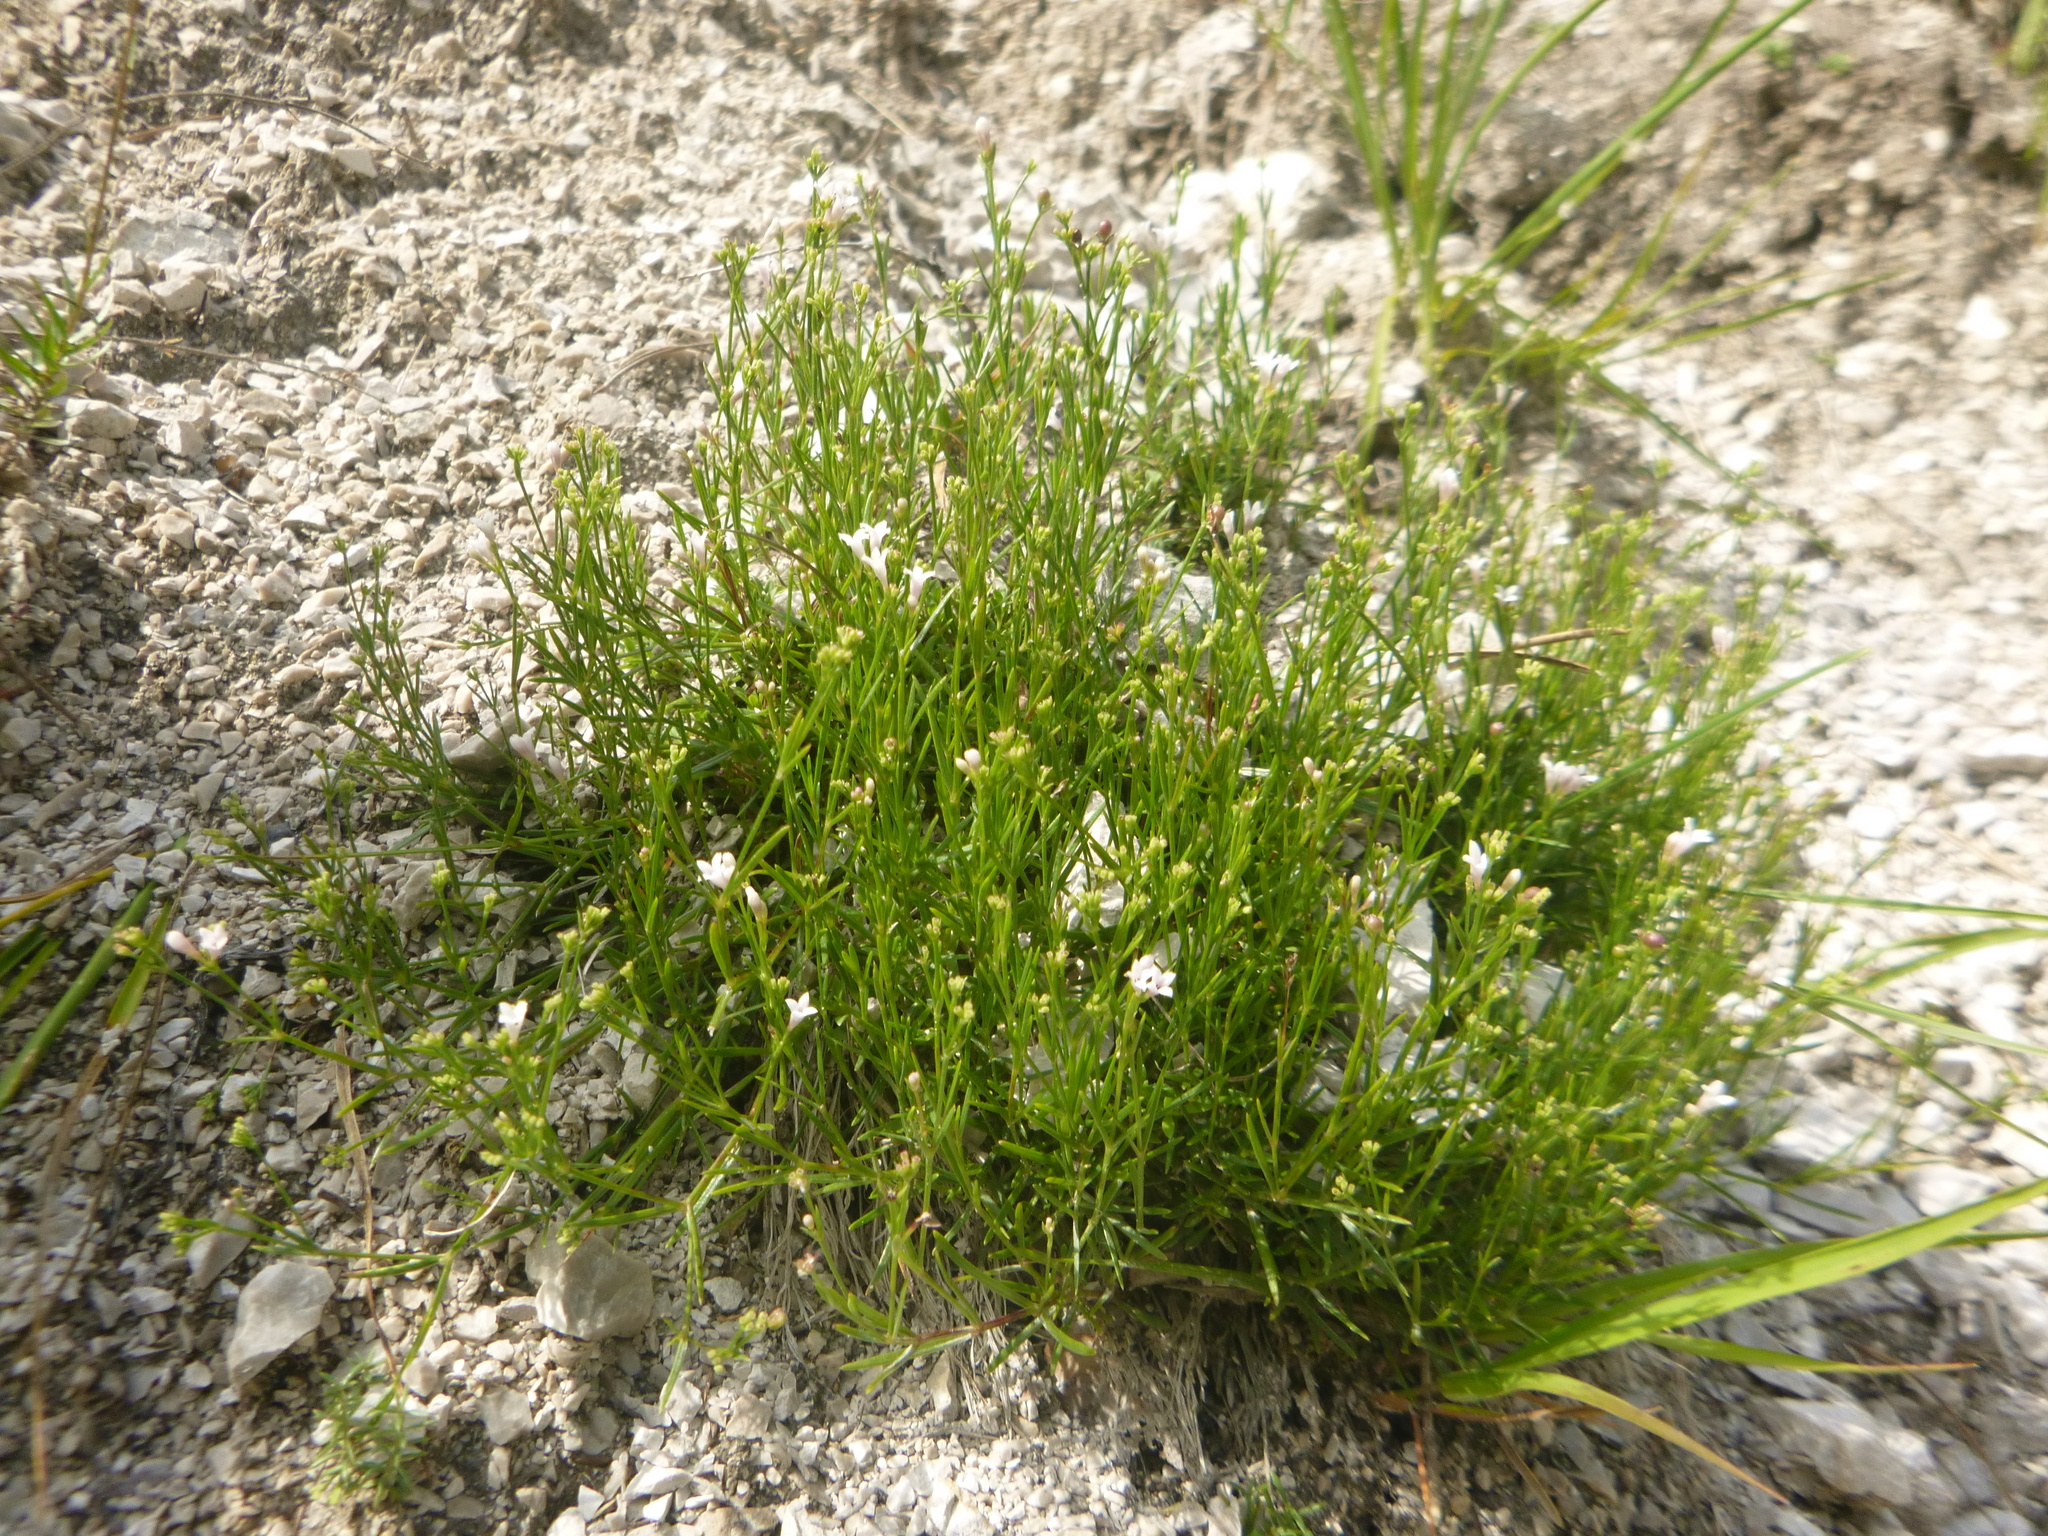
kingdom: Plantae
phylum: Tracheophyta
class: Magnoliopsida
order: Gentianales
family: Rubiaceae
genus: Cynanchica
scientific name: Cynanchica pyrenaica
